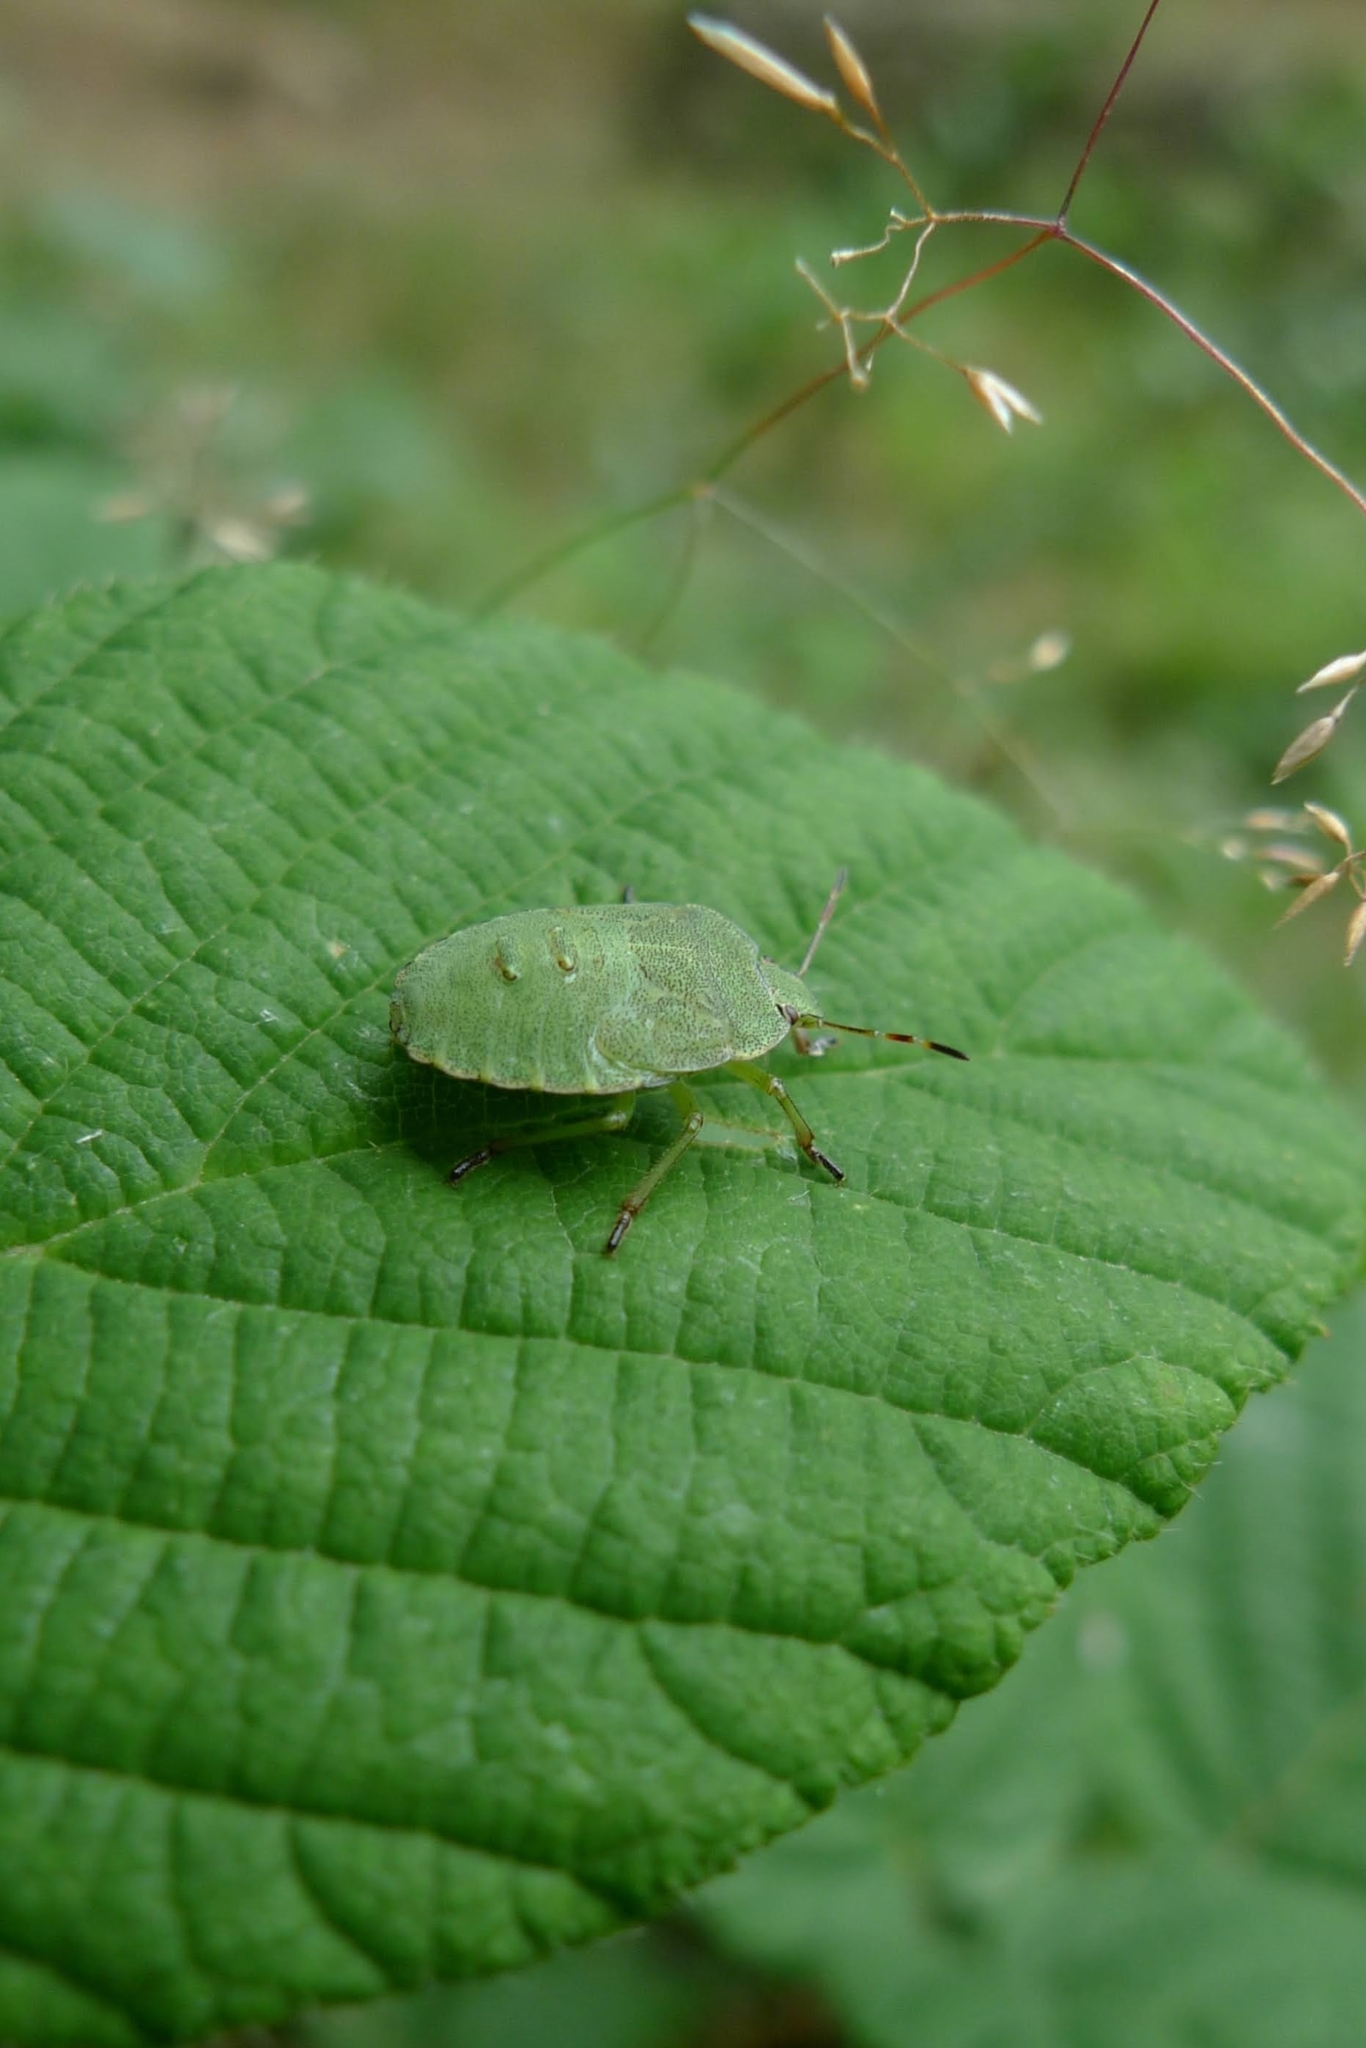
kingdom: Animalia
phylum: Arthropoda
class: Insecta
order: Hemiptera
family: Pentatomidae
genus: Palomena
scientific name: Palomena prasina
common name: Green shieldbug
